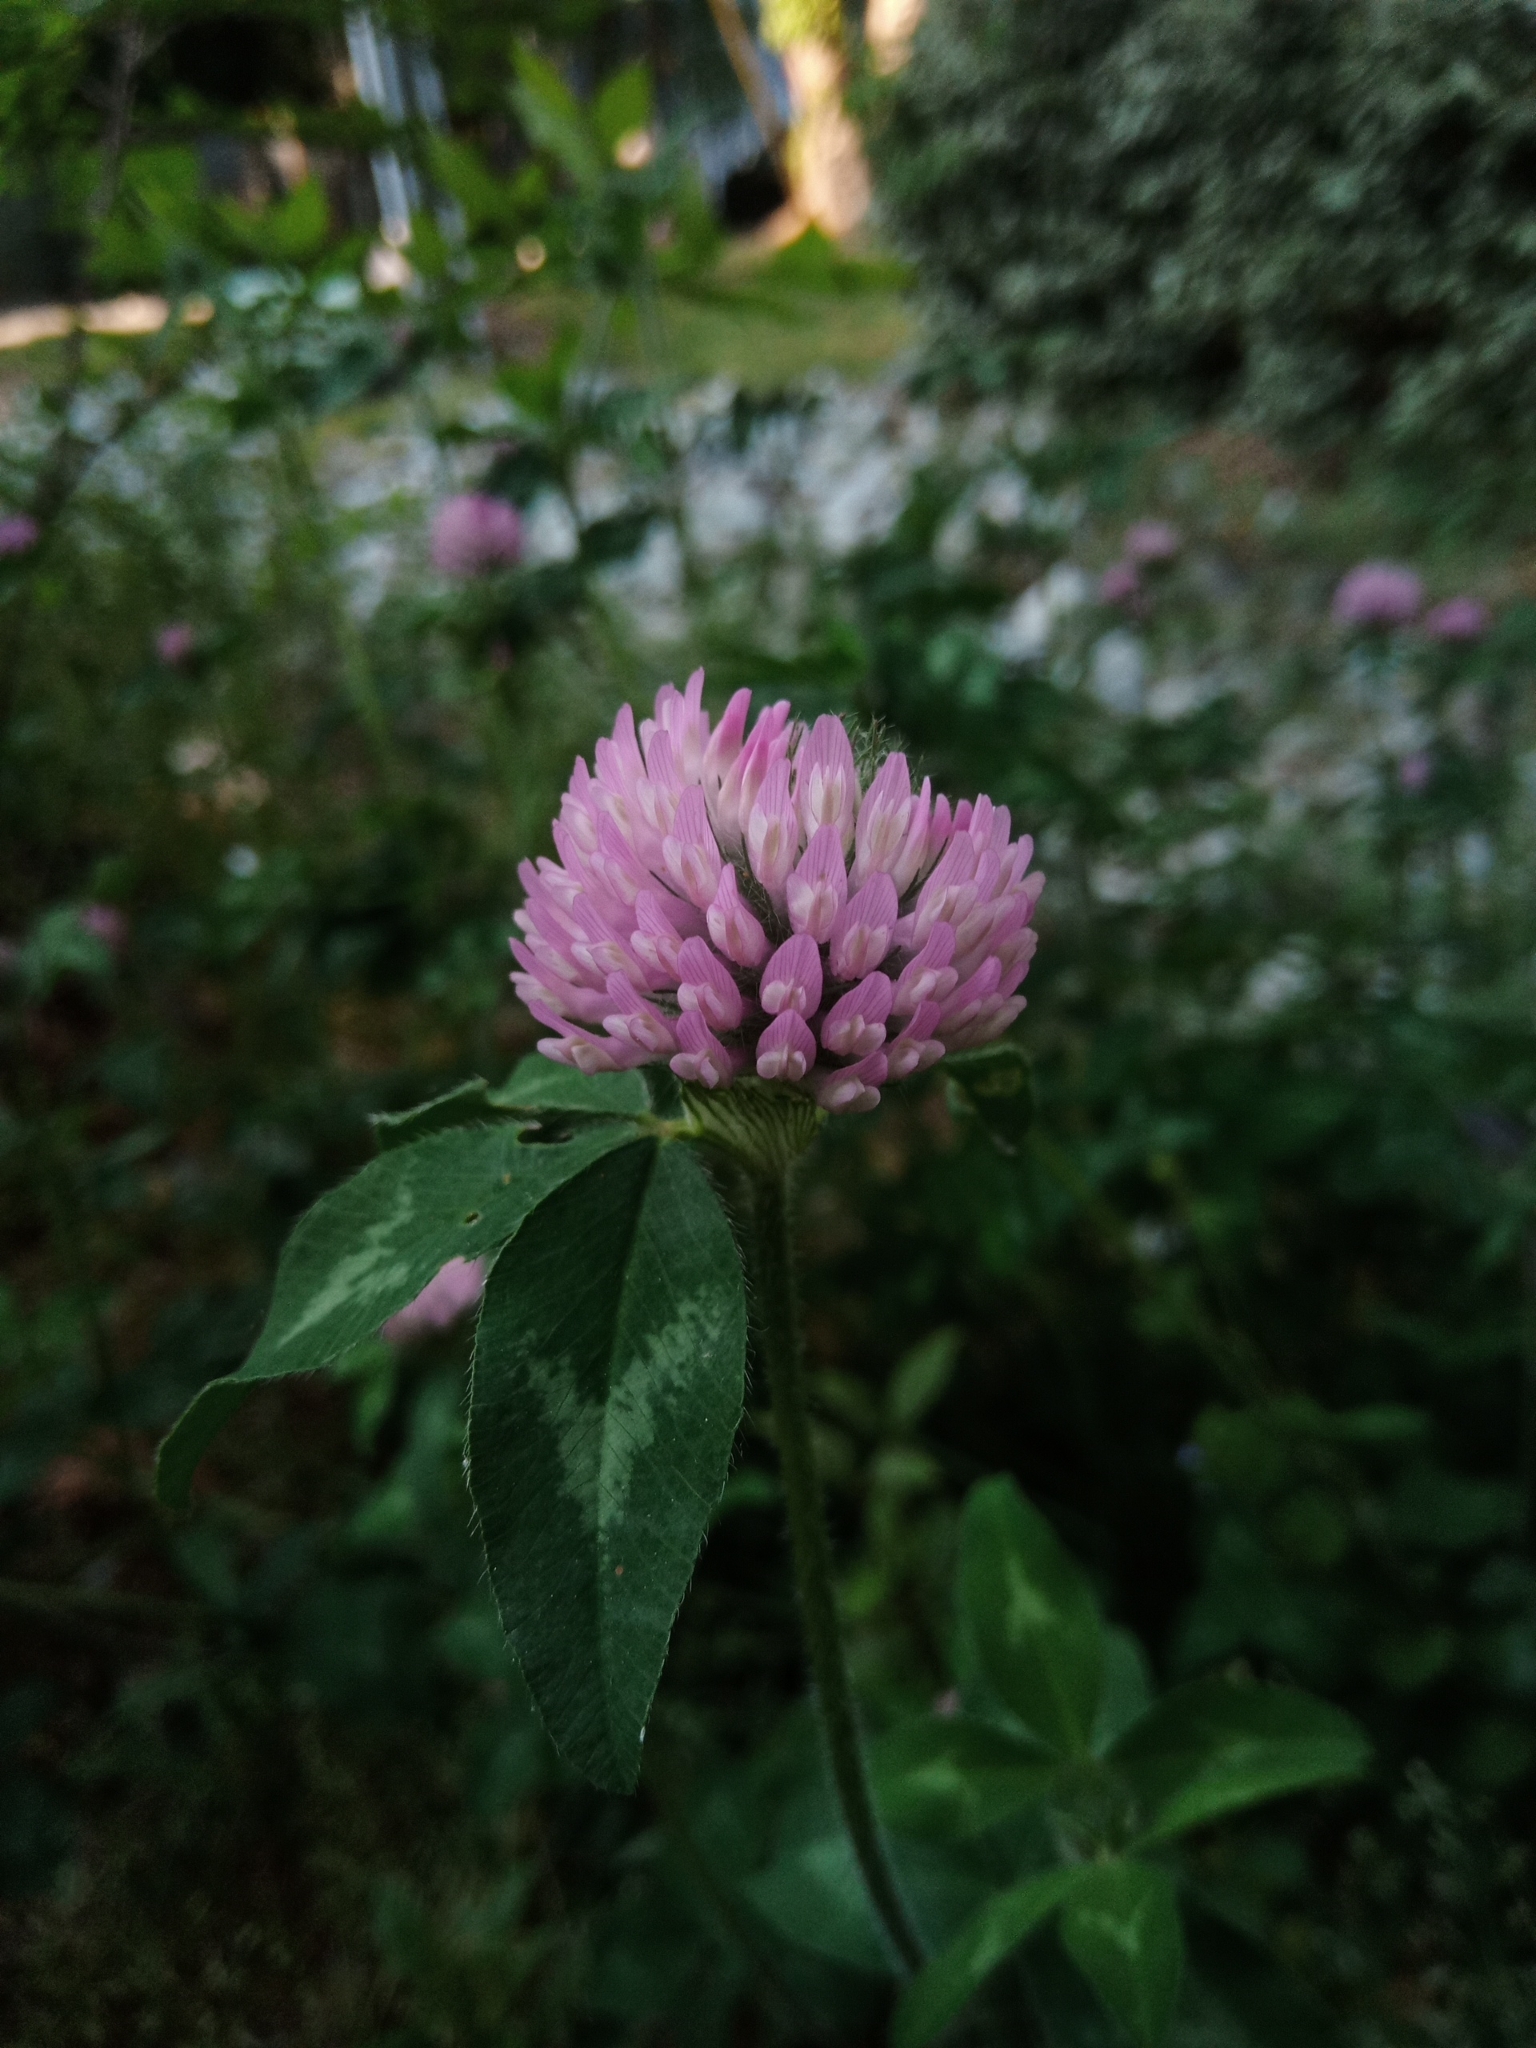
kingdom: Plantae
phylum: Tracheophyta
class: Magnoliopsida
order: Fabales
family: Fabaceae
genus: Trifolium
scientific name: Trifolium pratense
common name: Red clover
